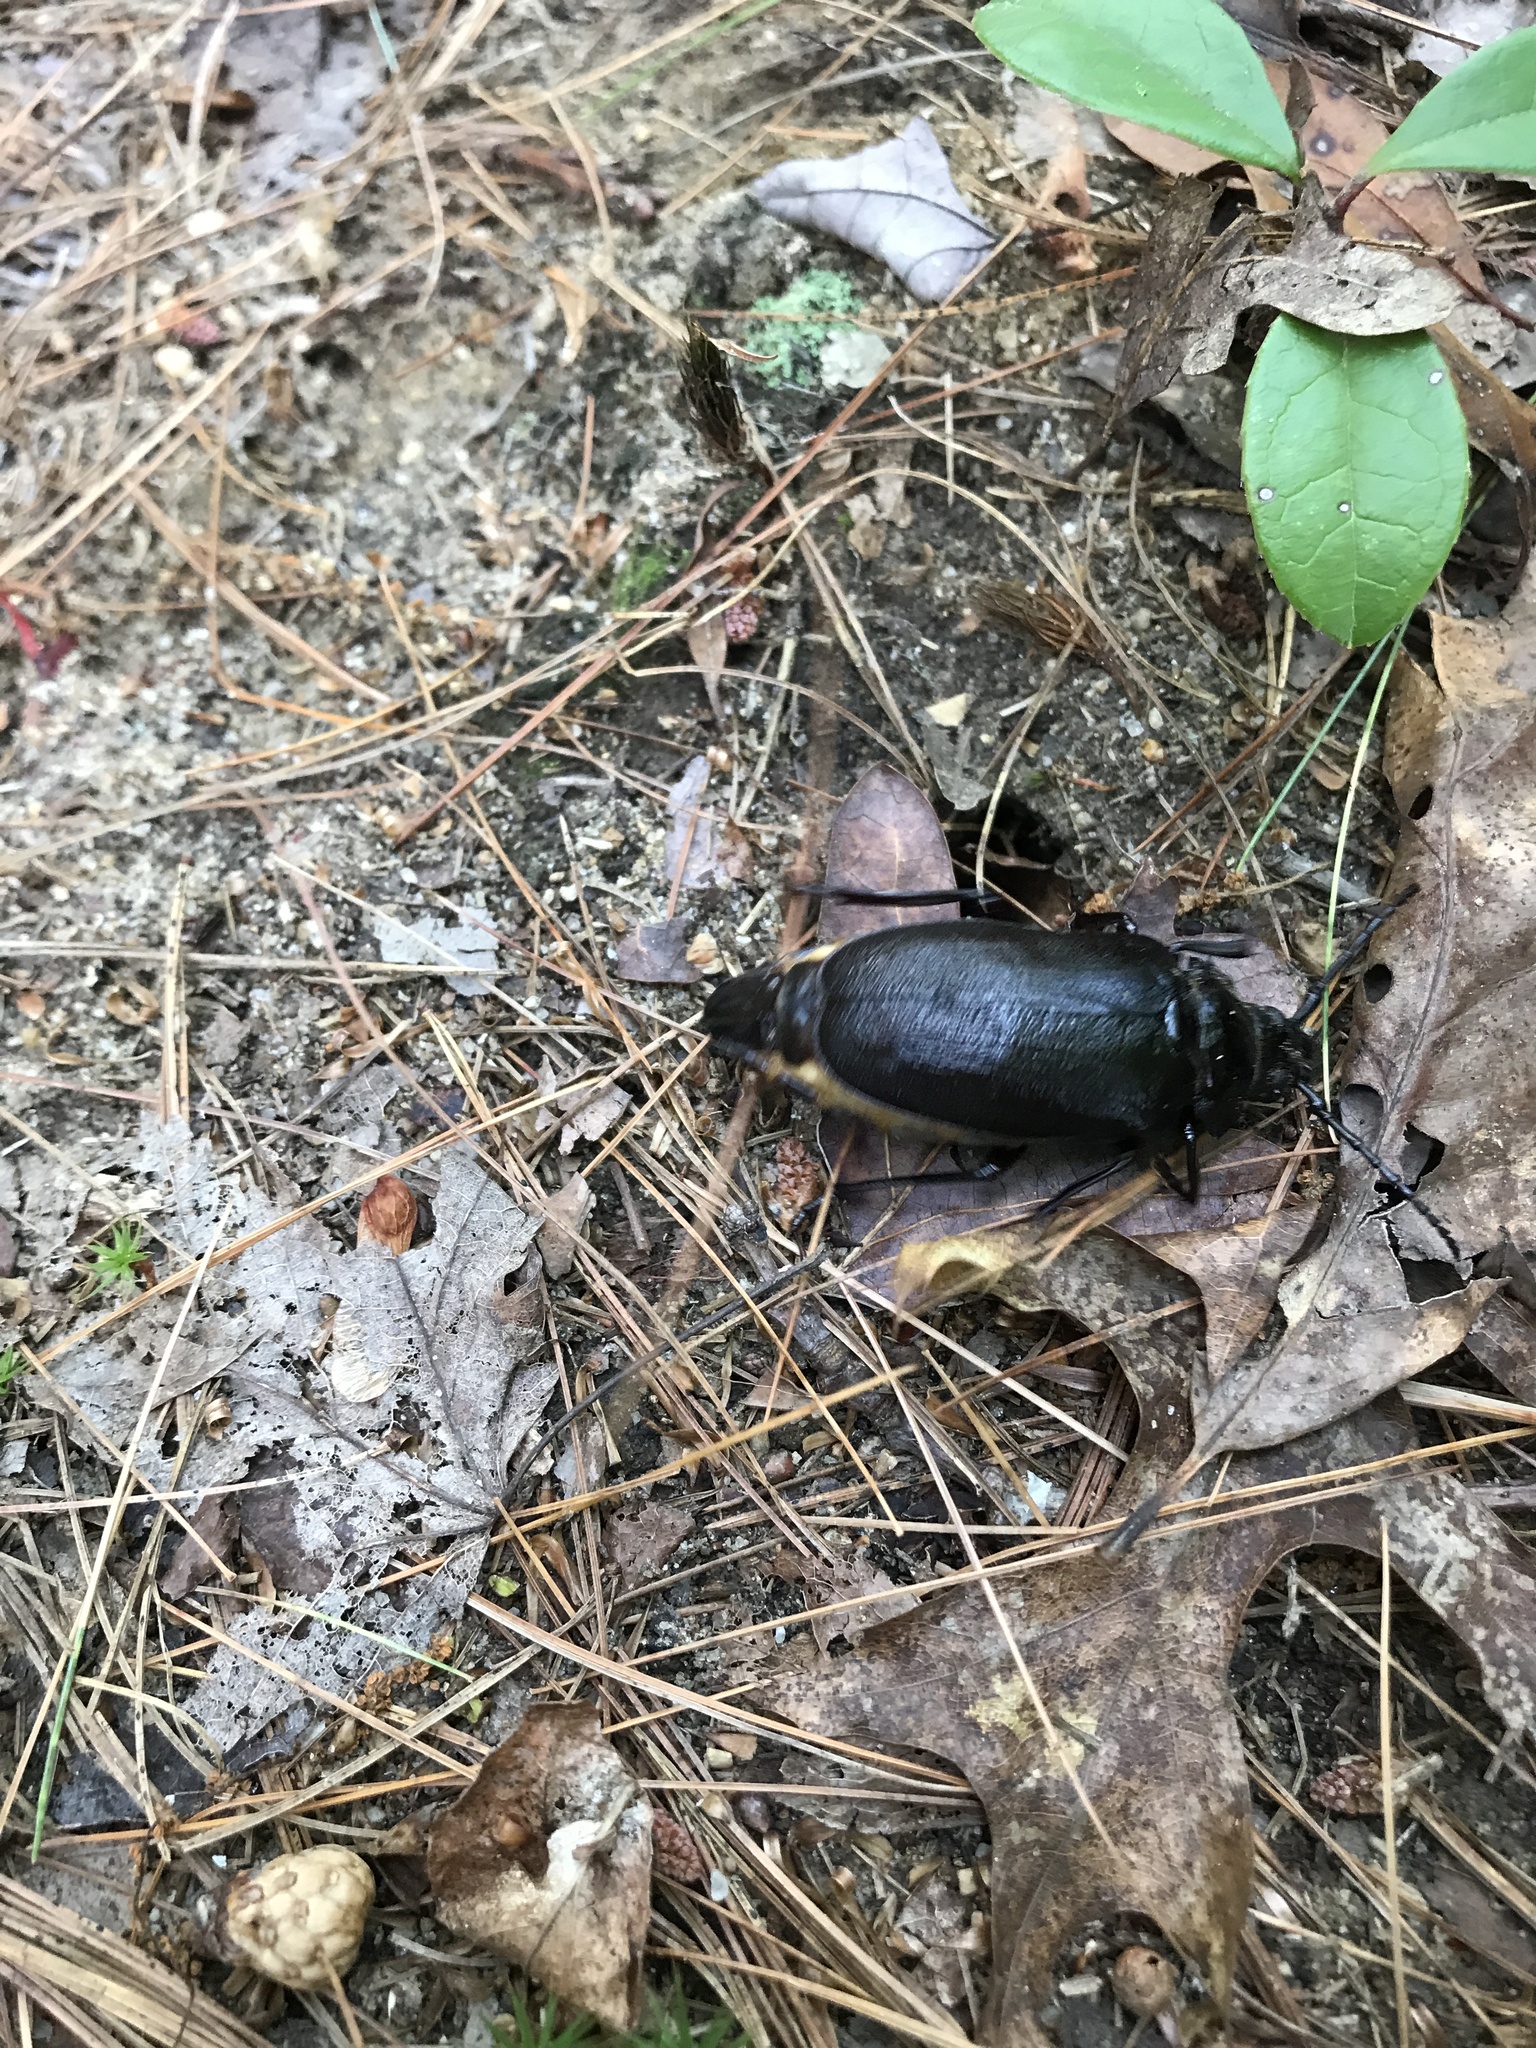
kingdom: Animalia
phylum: Arthropoda
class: Insecta
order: Coleoptera
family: Cerambycidae
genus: Prionus
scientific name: Prionus laticollis
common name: Broad necked prionus
